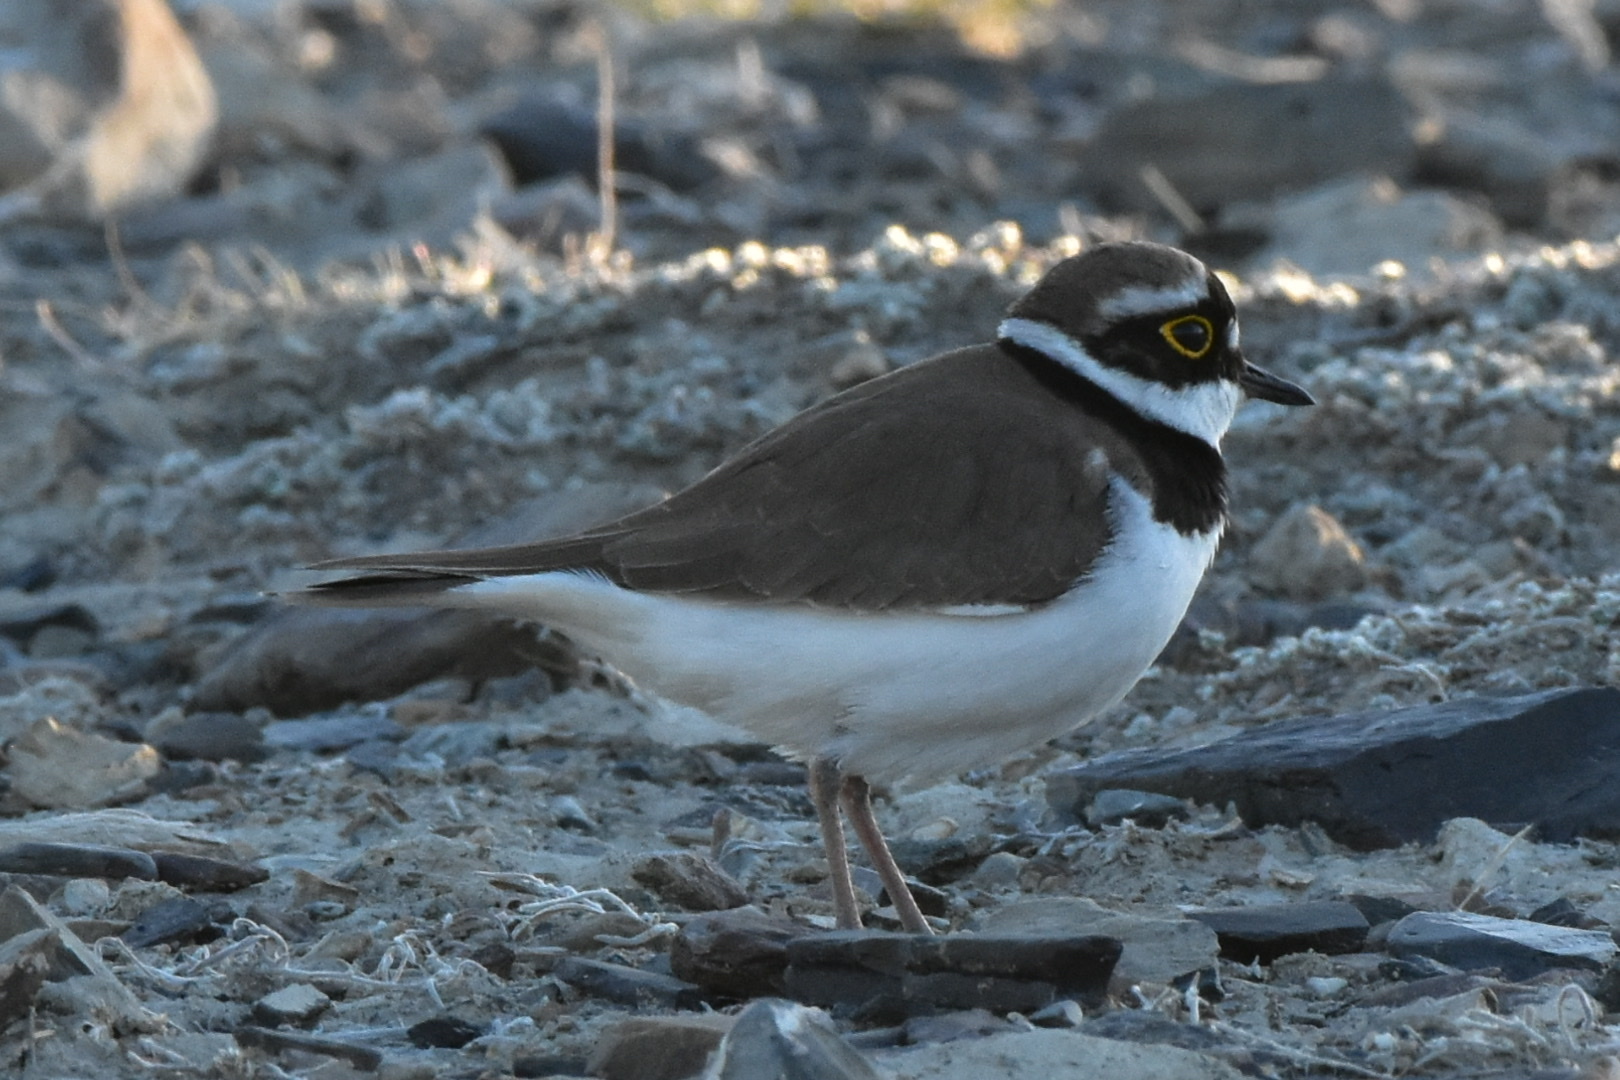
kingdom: Animalia
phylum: Chordata
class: Aves
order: Charadriiformes
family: Charadriidae
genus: Charadrius
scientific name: Charadrius dubius
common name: Little ringed plover
